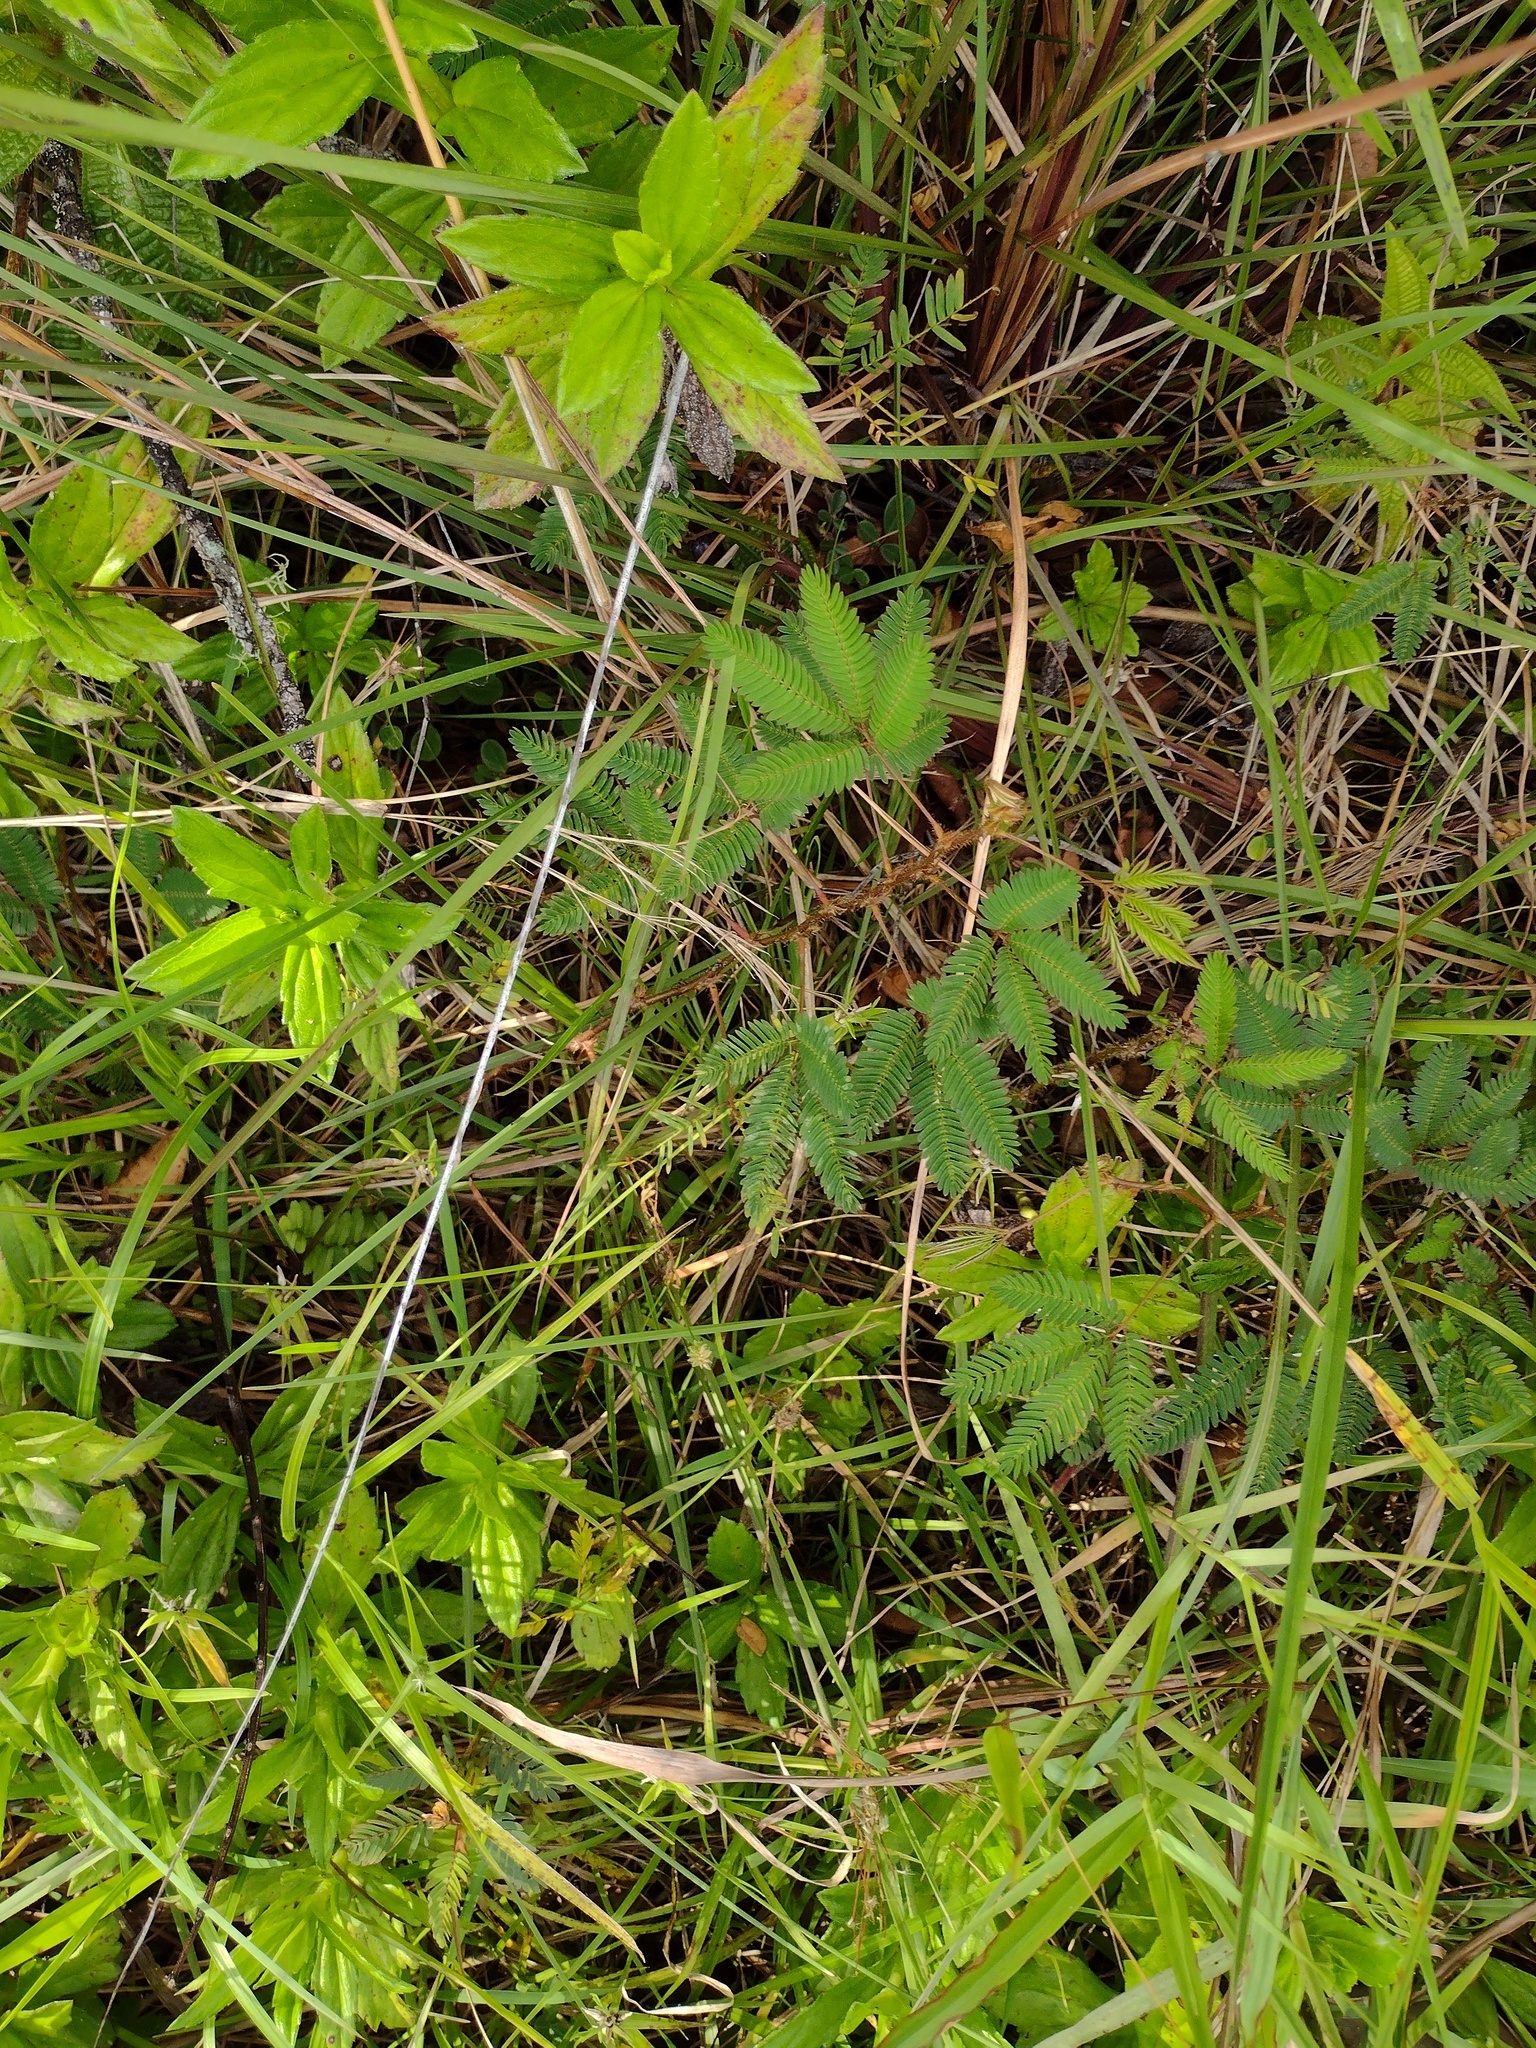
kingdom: Plantae
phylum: Tracheophyta
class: Magnoliopsida
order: Fabales
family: Fabaceae
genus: Mimosa
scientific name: Mimosa pudica
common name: Sensitive plant
